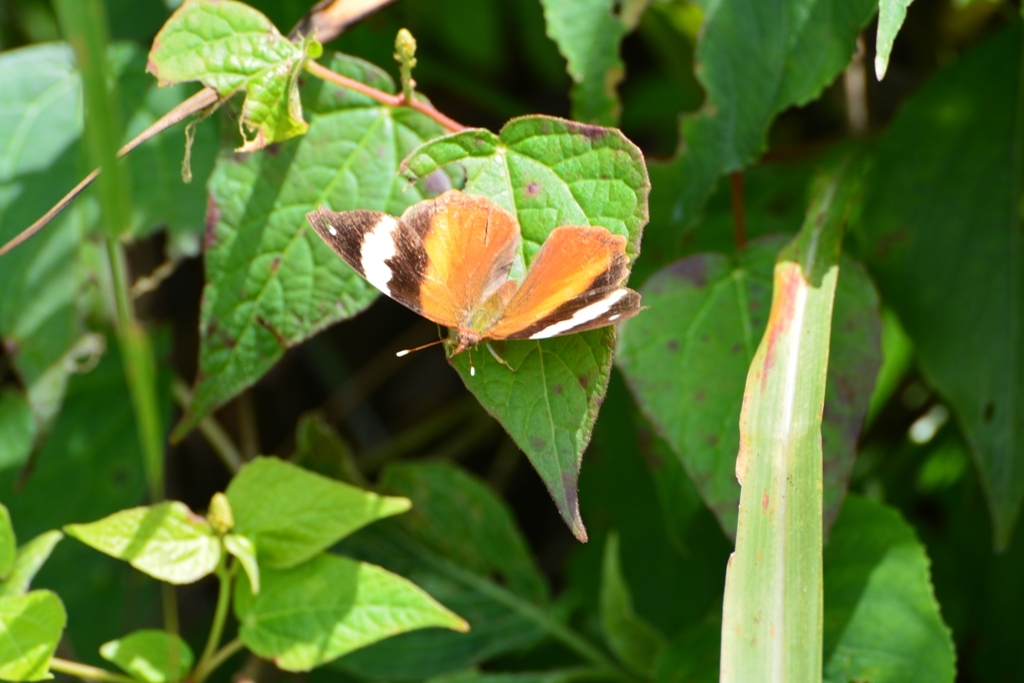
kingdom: Animalia
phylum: Arthropoda
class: Insecta
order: Lepidoptera
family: Nymphalidae
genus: Epiphile
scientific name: Epiphile adrasta
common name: Common banner
